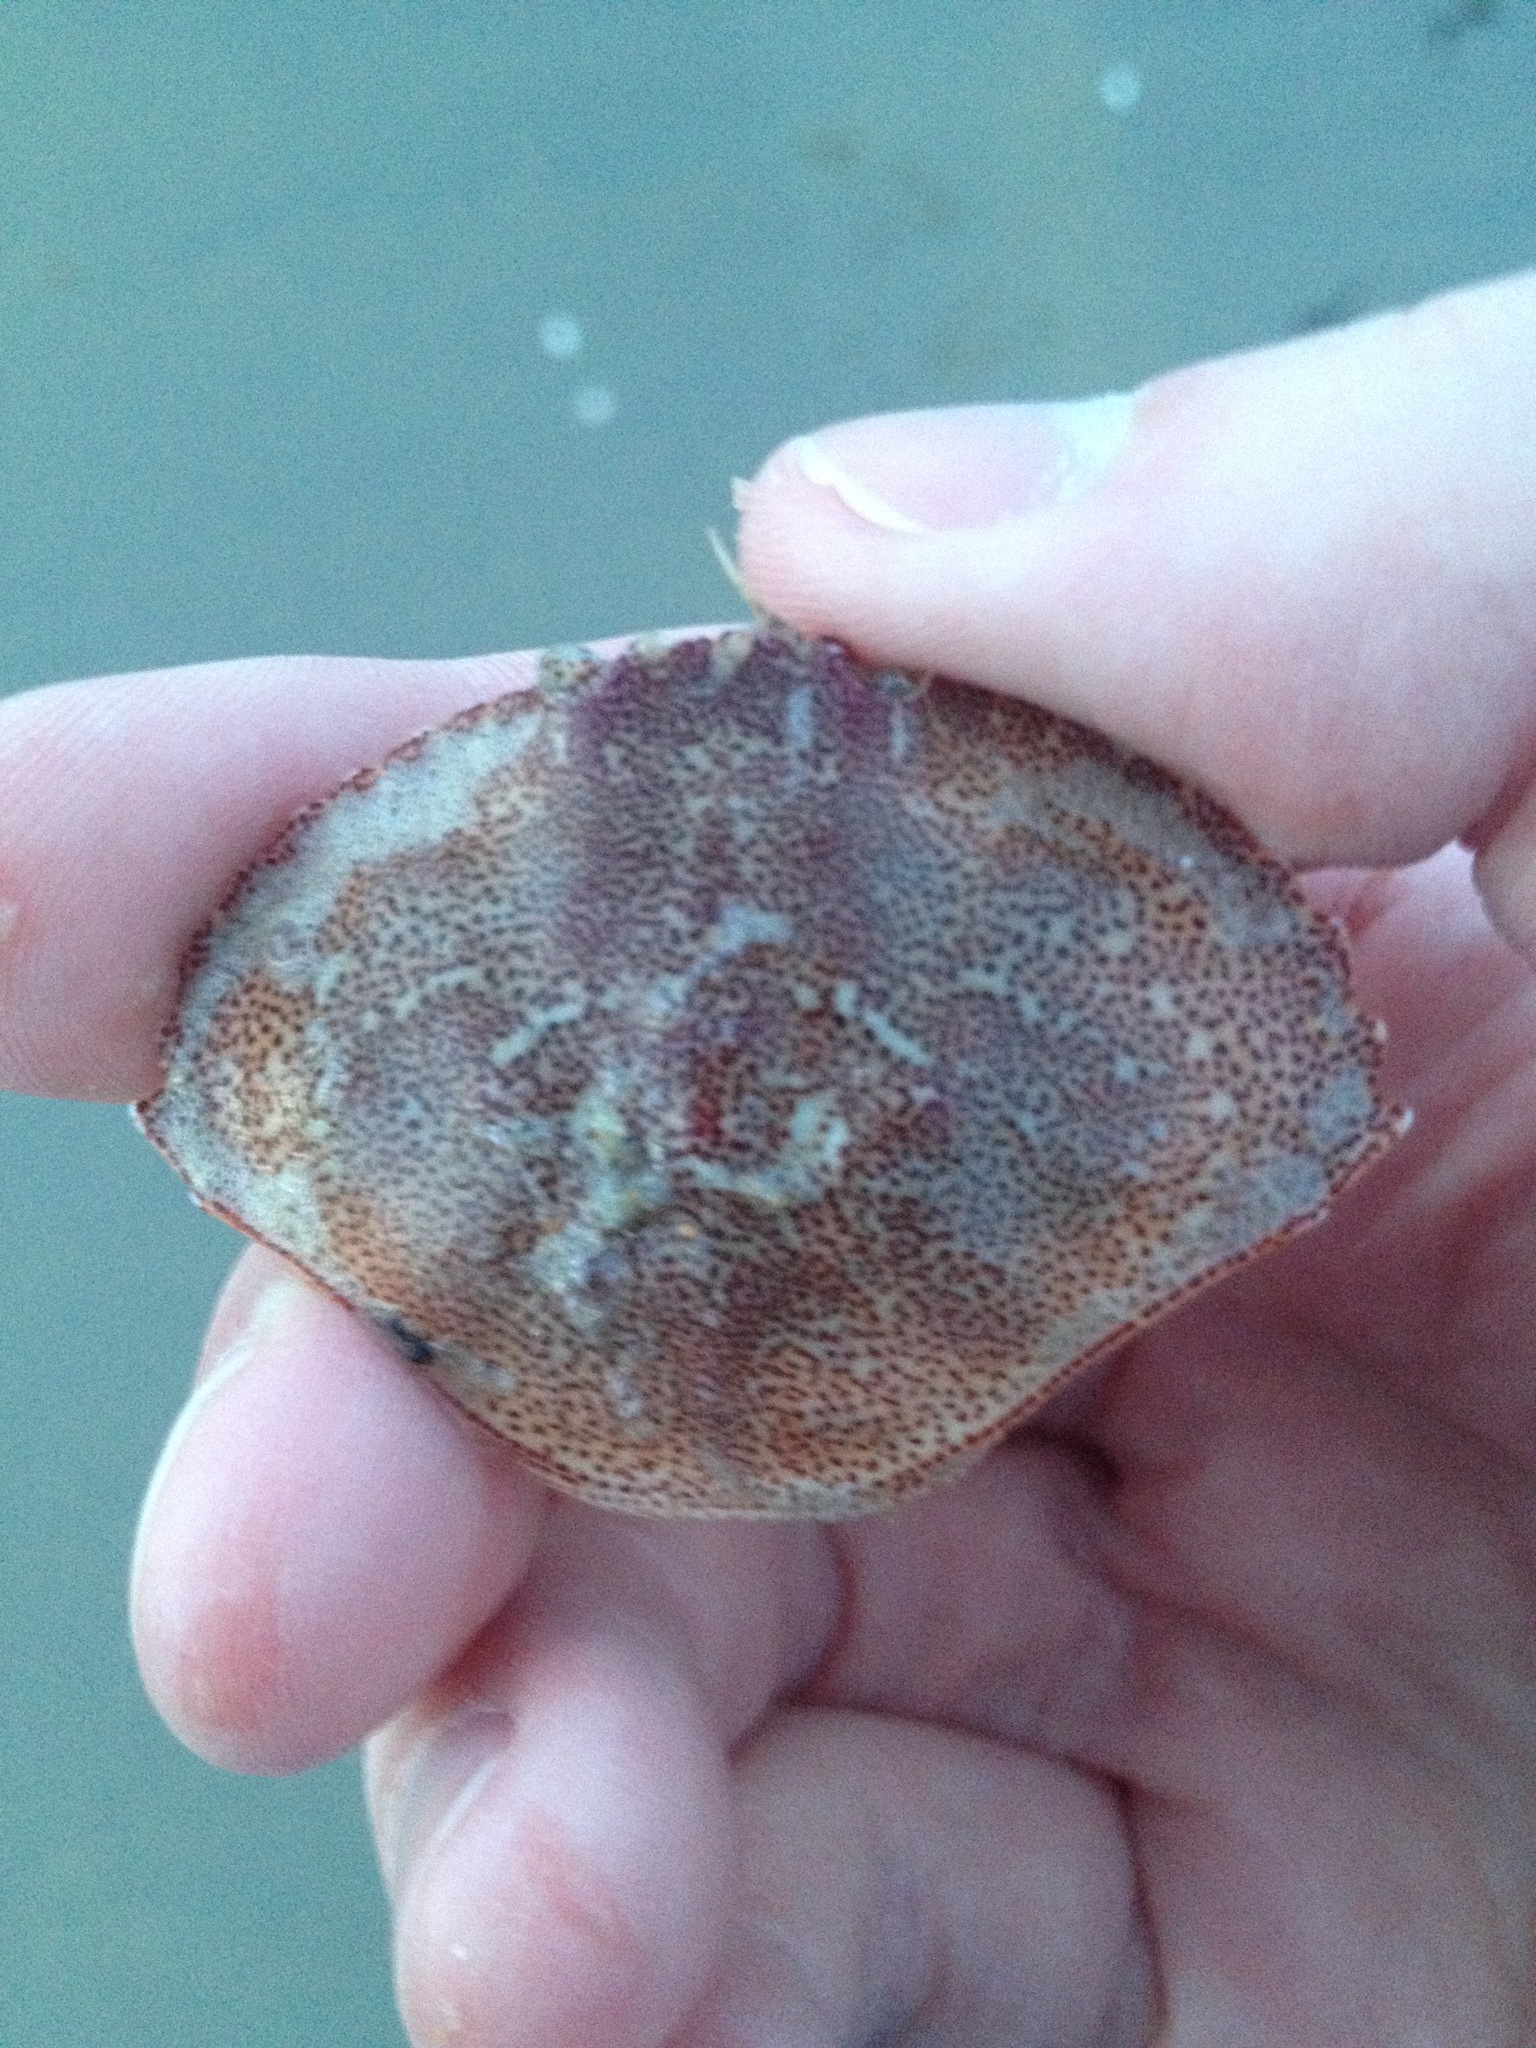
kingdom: Animalia
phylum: Arthropoda
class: Malacostraca
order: Decapoda
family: Cancridae
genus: Cancer
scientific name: Cancer irroratus
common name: Atlantic rock crab
